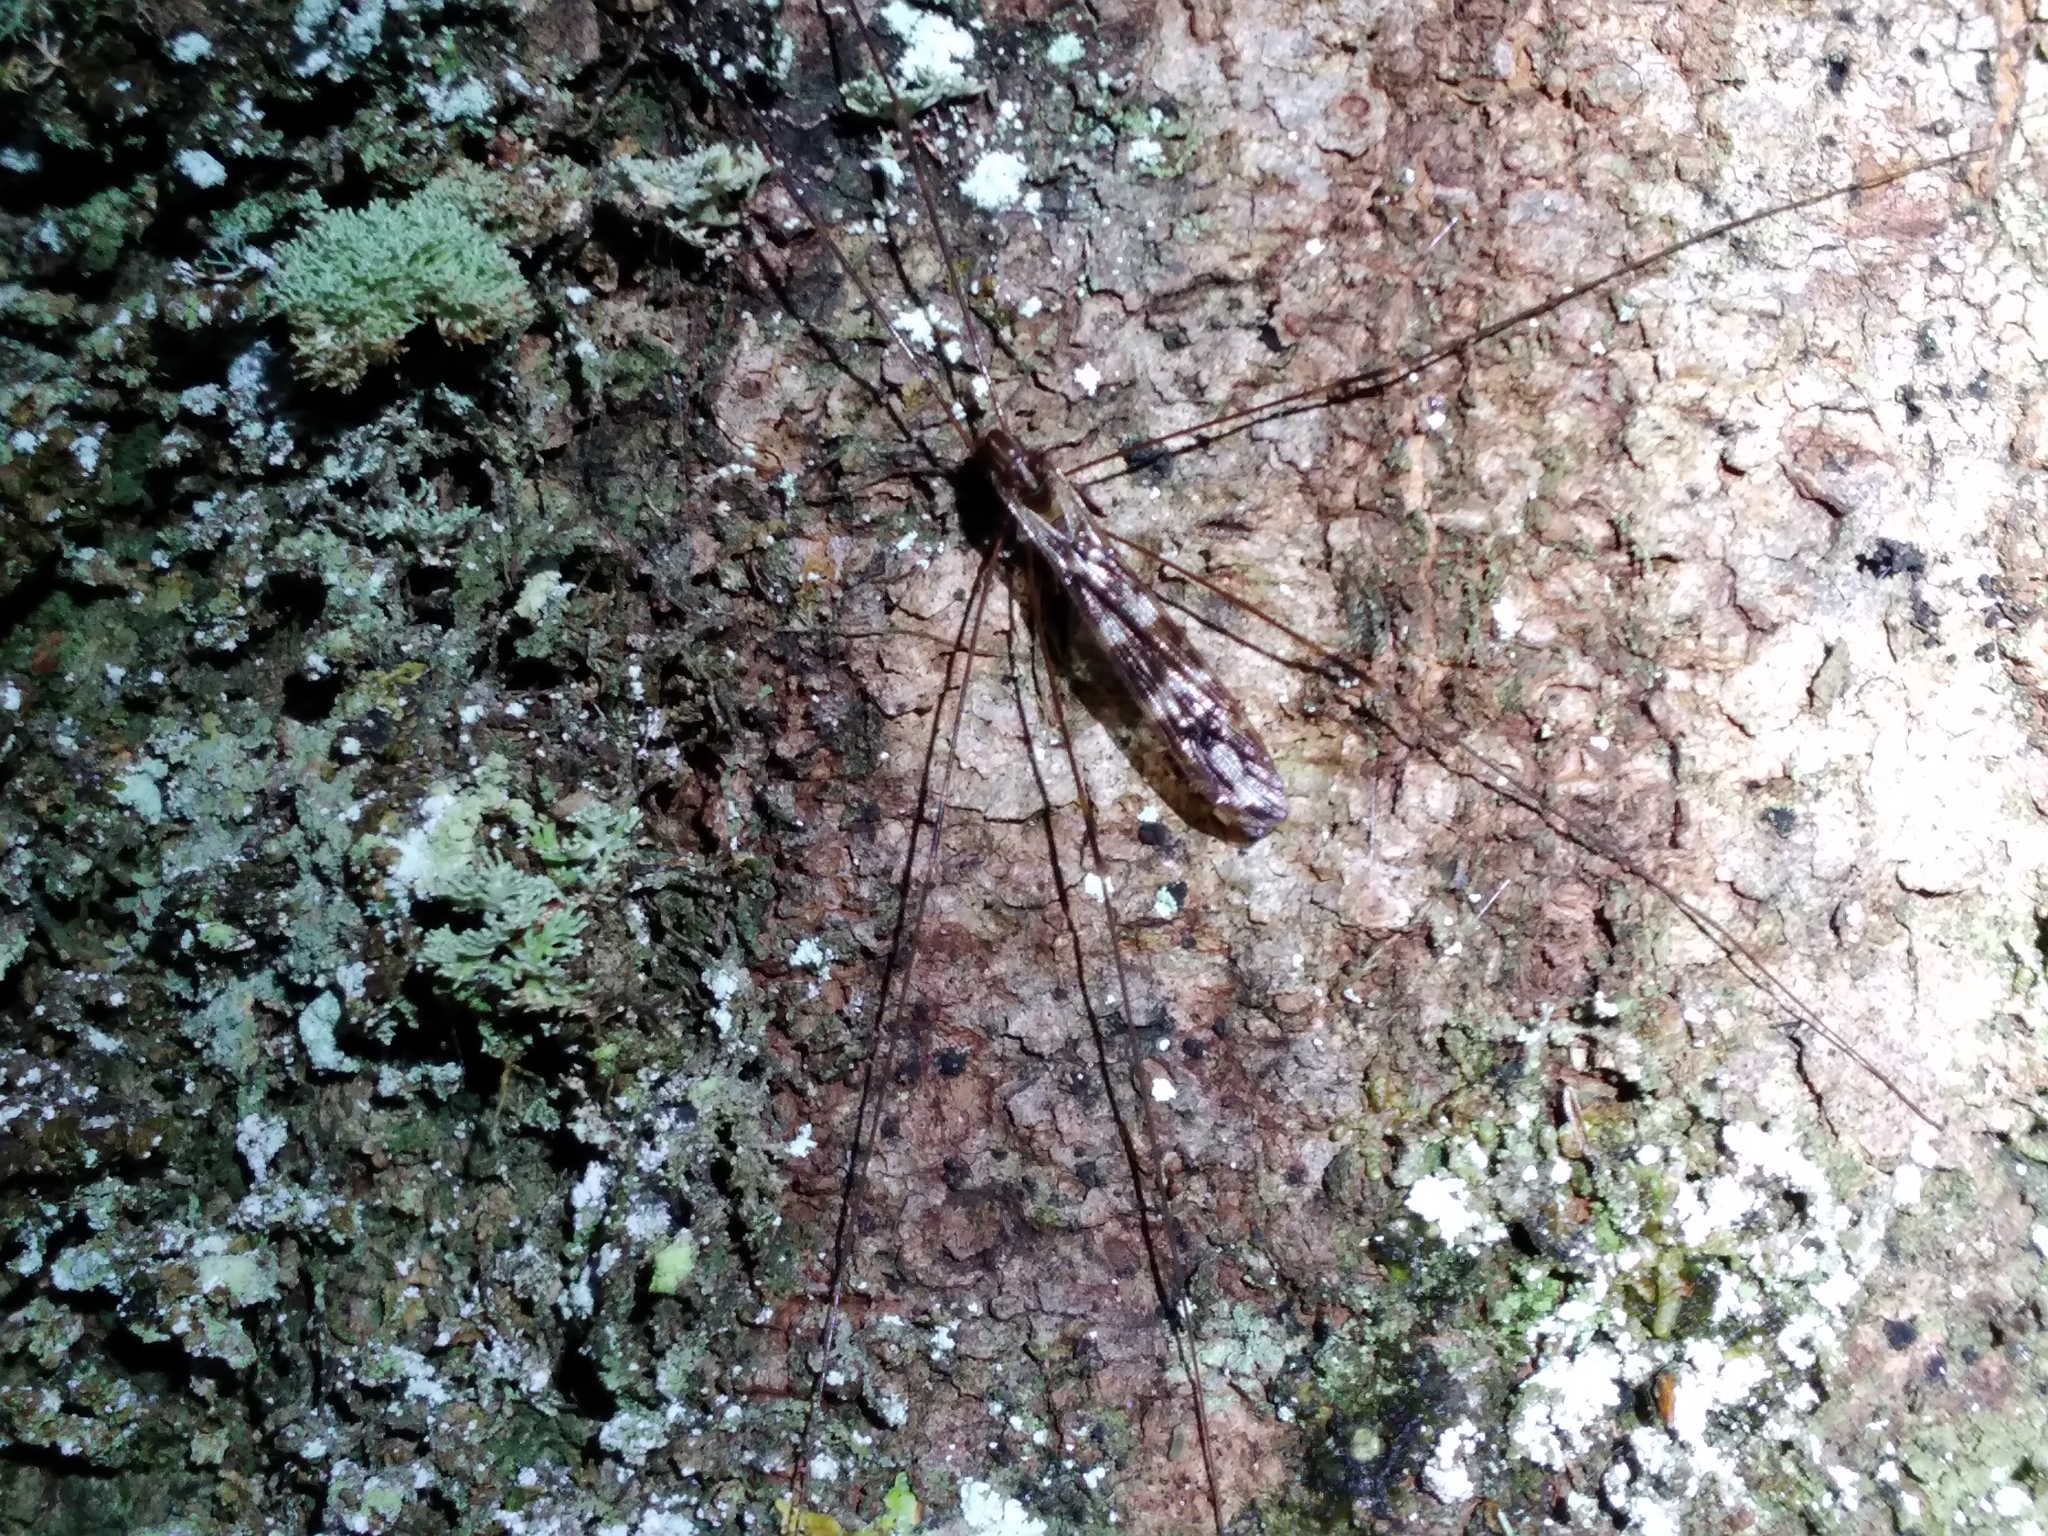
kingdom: Animalia
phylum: Arthropoda
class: Insecta
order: Diptera
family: Limoniidae
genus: Discobola
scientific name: Discobola dohrni
